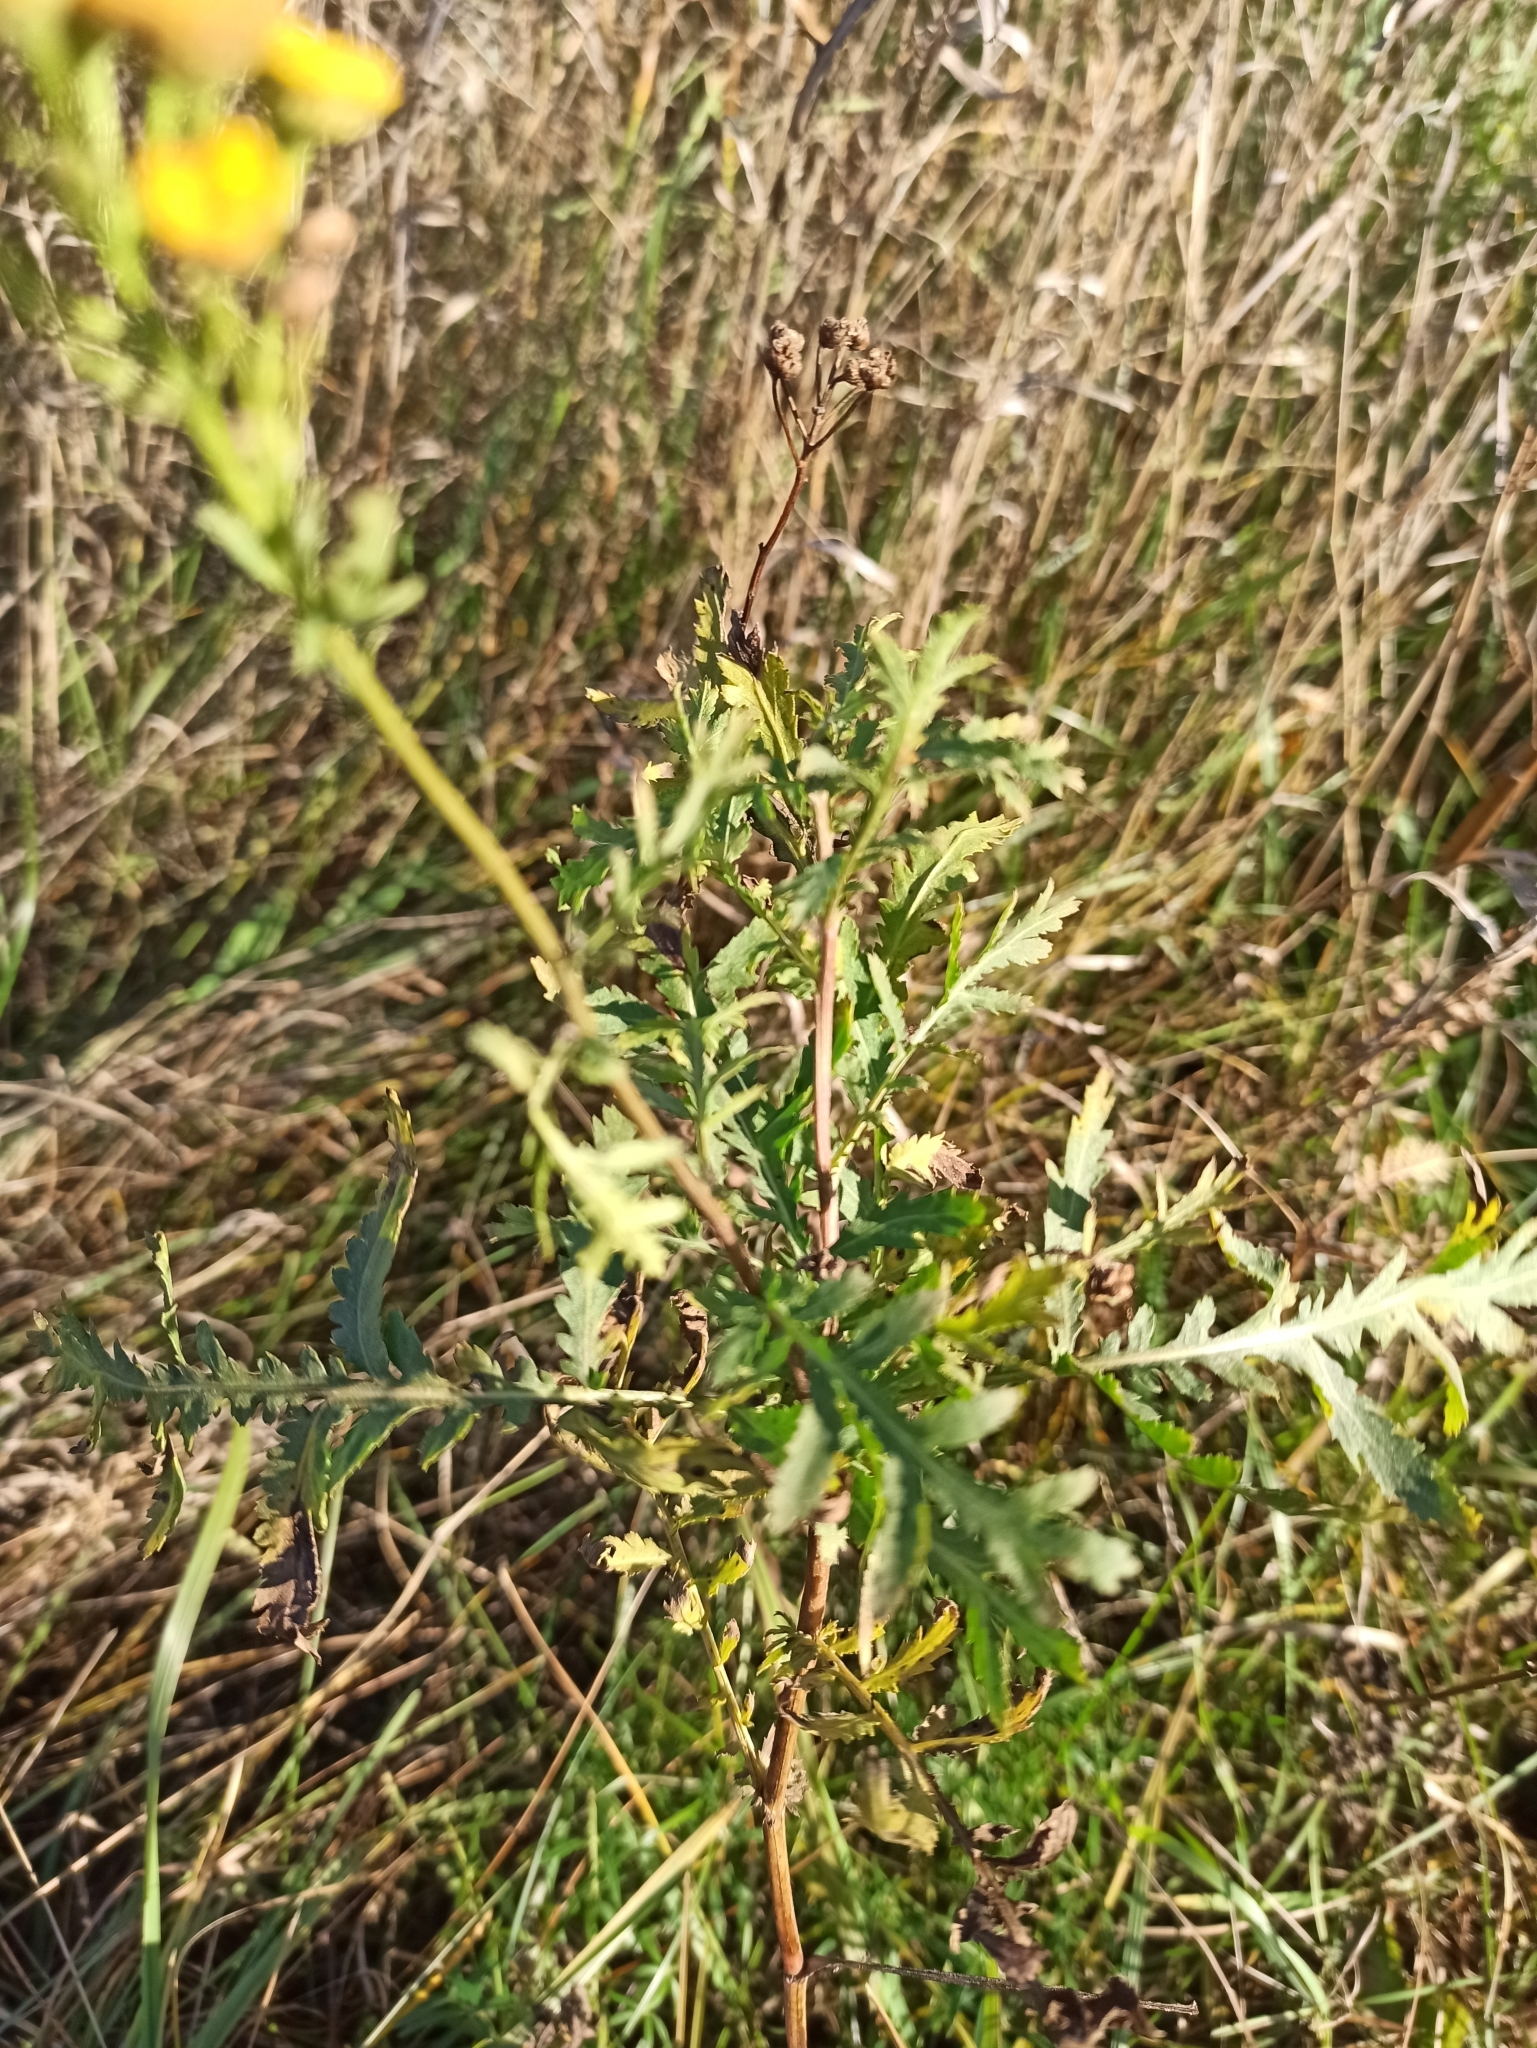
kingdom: Plantae
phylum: Tracheophyta
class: Magnoliopsida
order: Asterales
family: Asteraceae
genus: Tanacetum
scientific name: Tanacetum vulgare
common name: Common tansy
